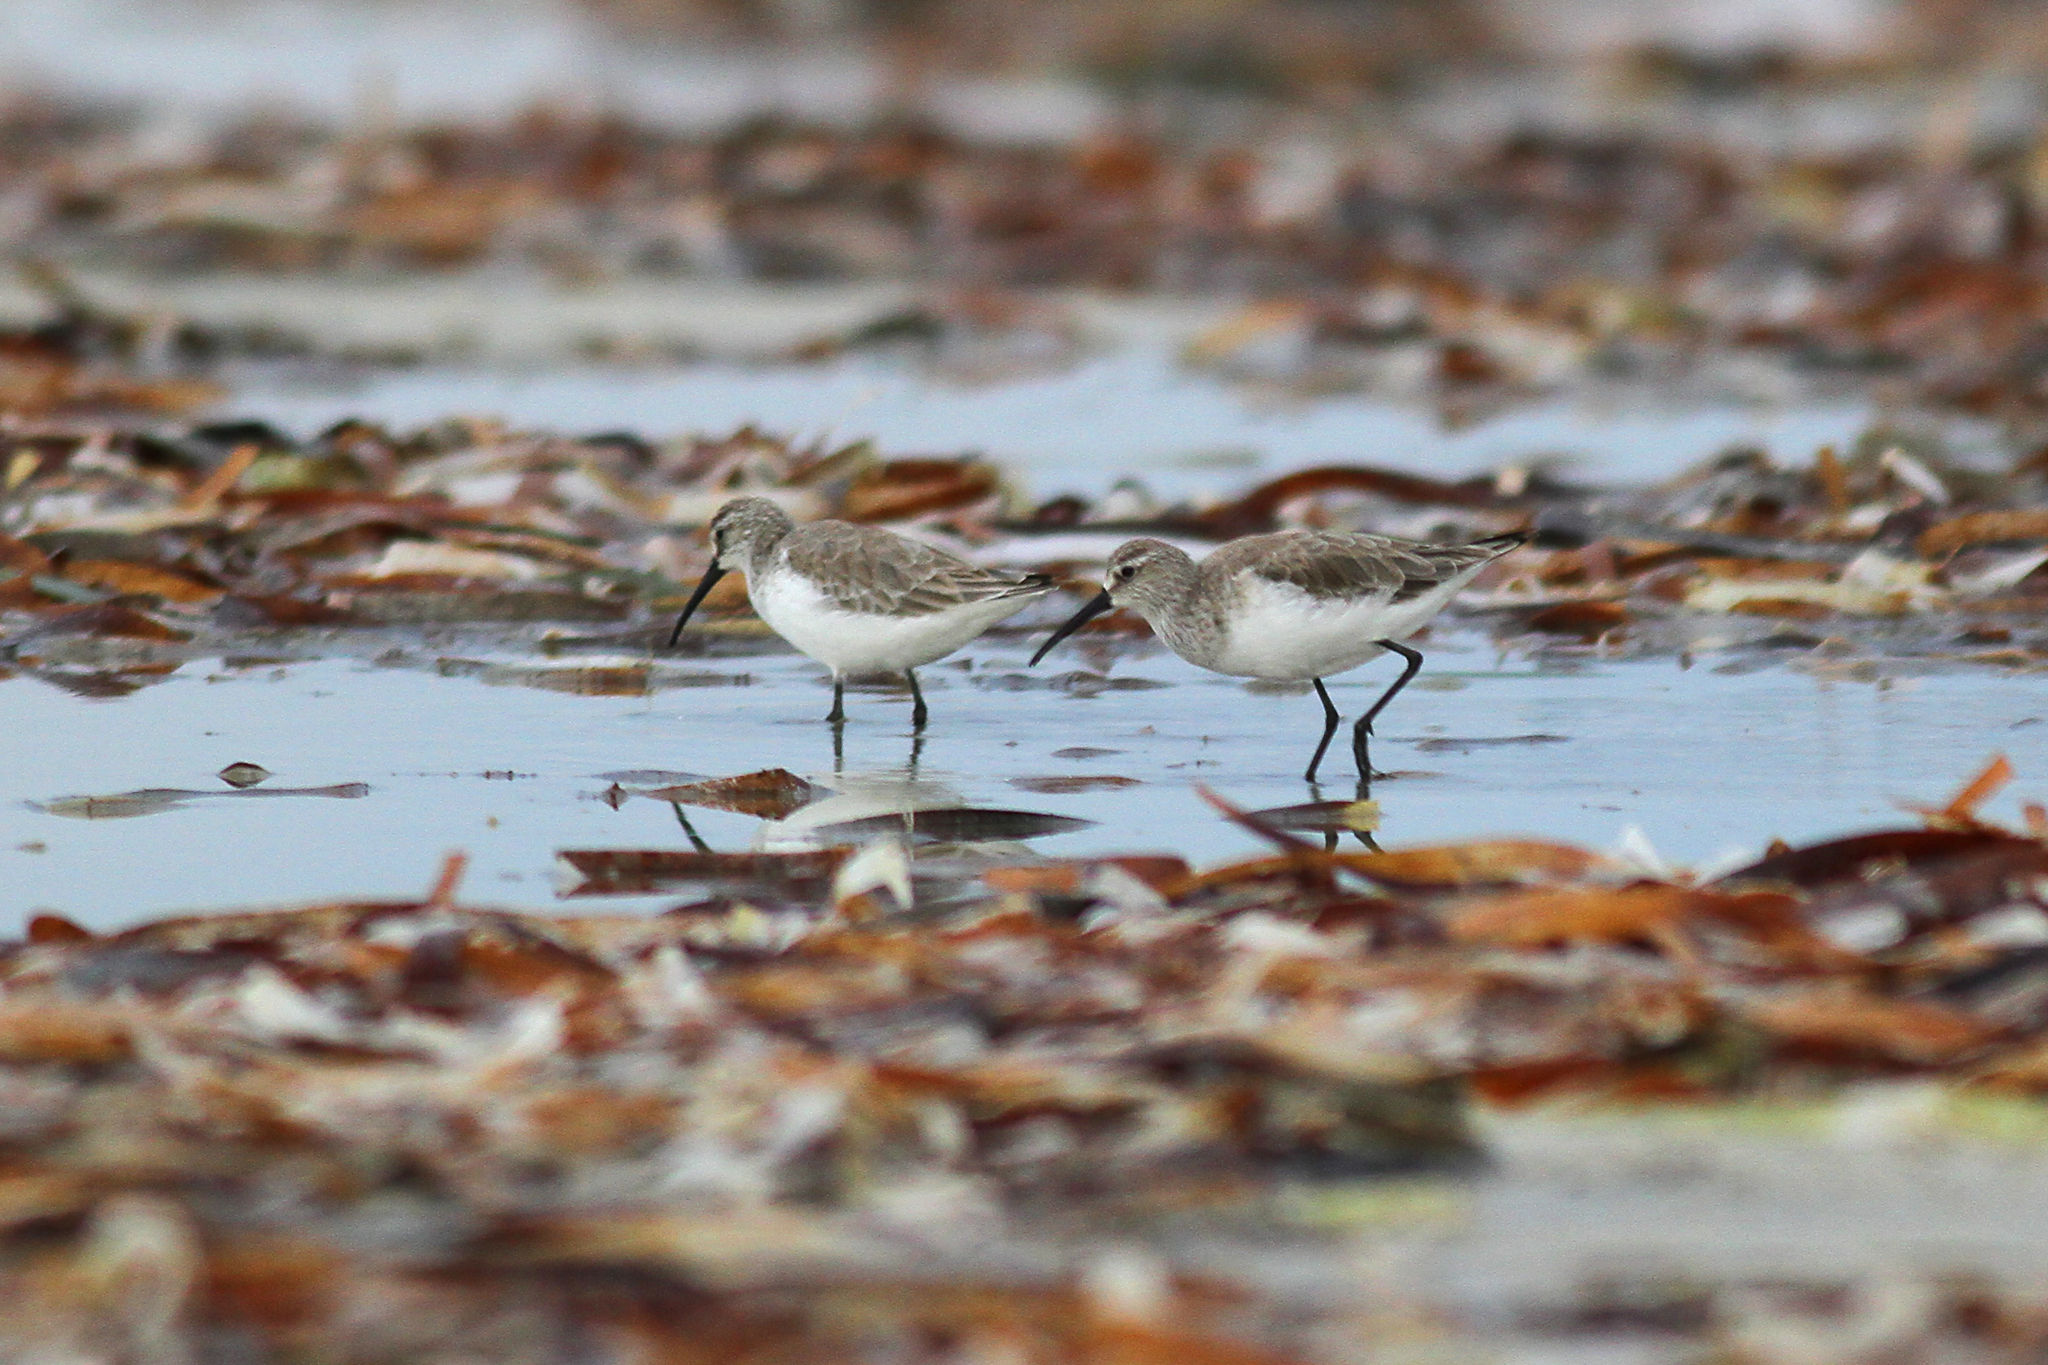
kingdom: Animalia
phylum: Chordata
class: Aves
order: Charadriiformes
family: Scolopacidae
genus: Calidris
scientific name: Calidris ferruginea
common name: Curlew sandpiper
